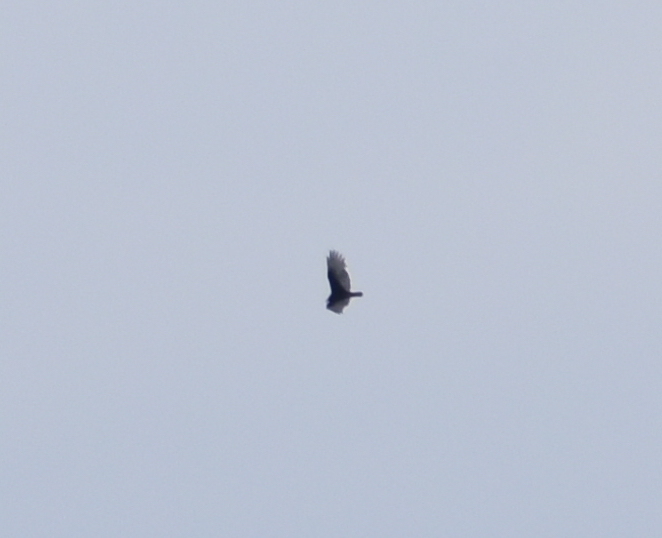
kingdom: Animalia
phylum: Chordata
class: Aves
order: Accipitriformes
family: Cathartidae
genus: Cathartes
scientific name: Cathartes aura
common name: Turkey vulture
